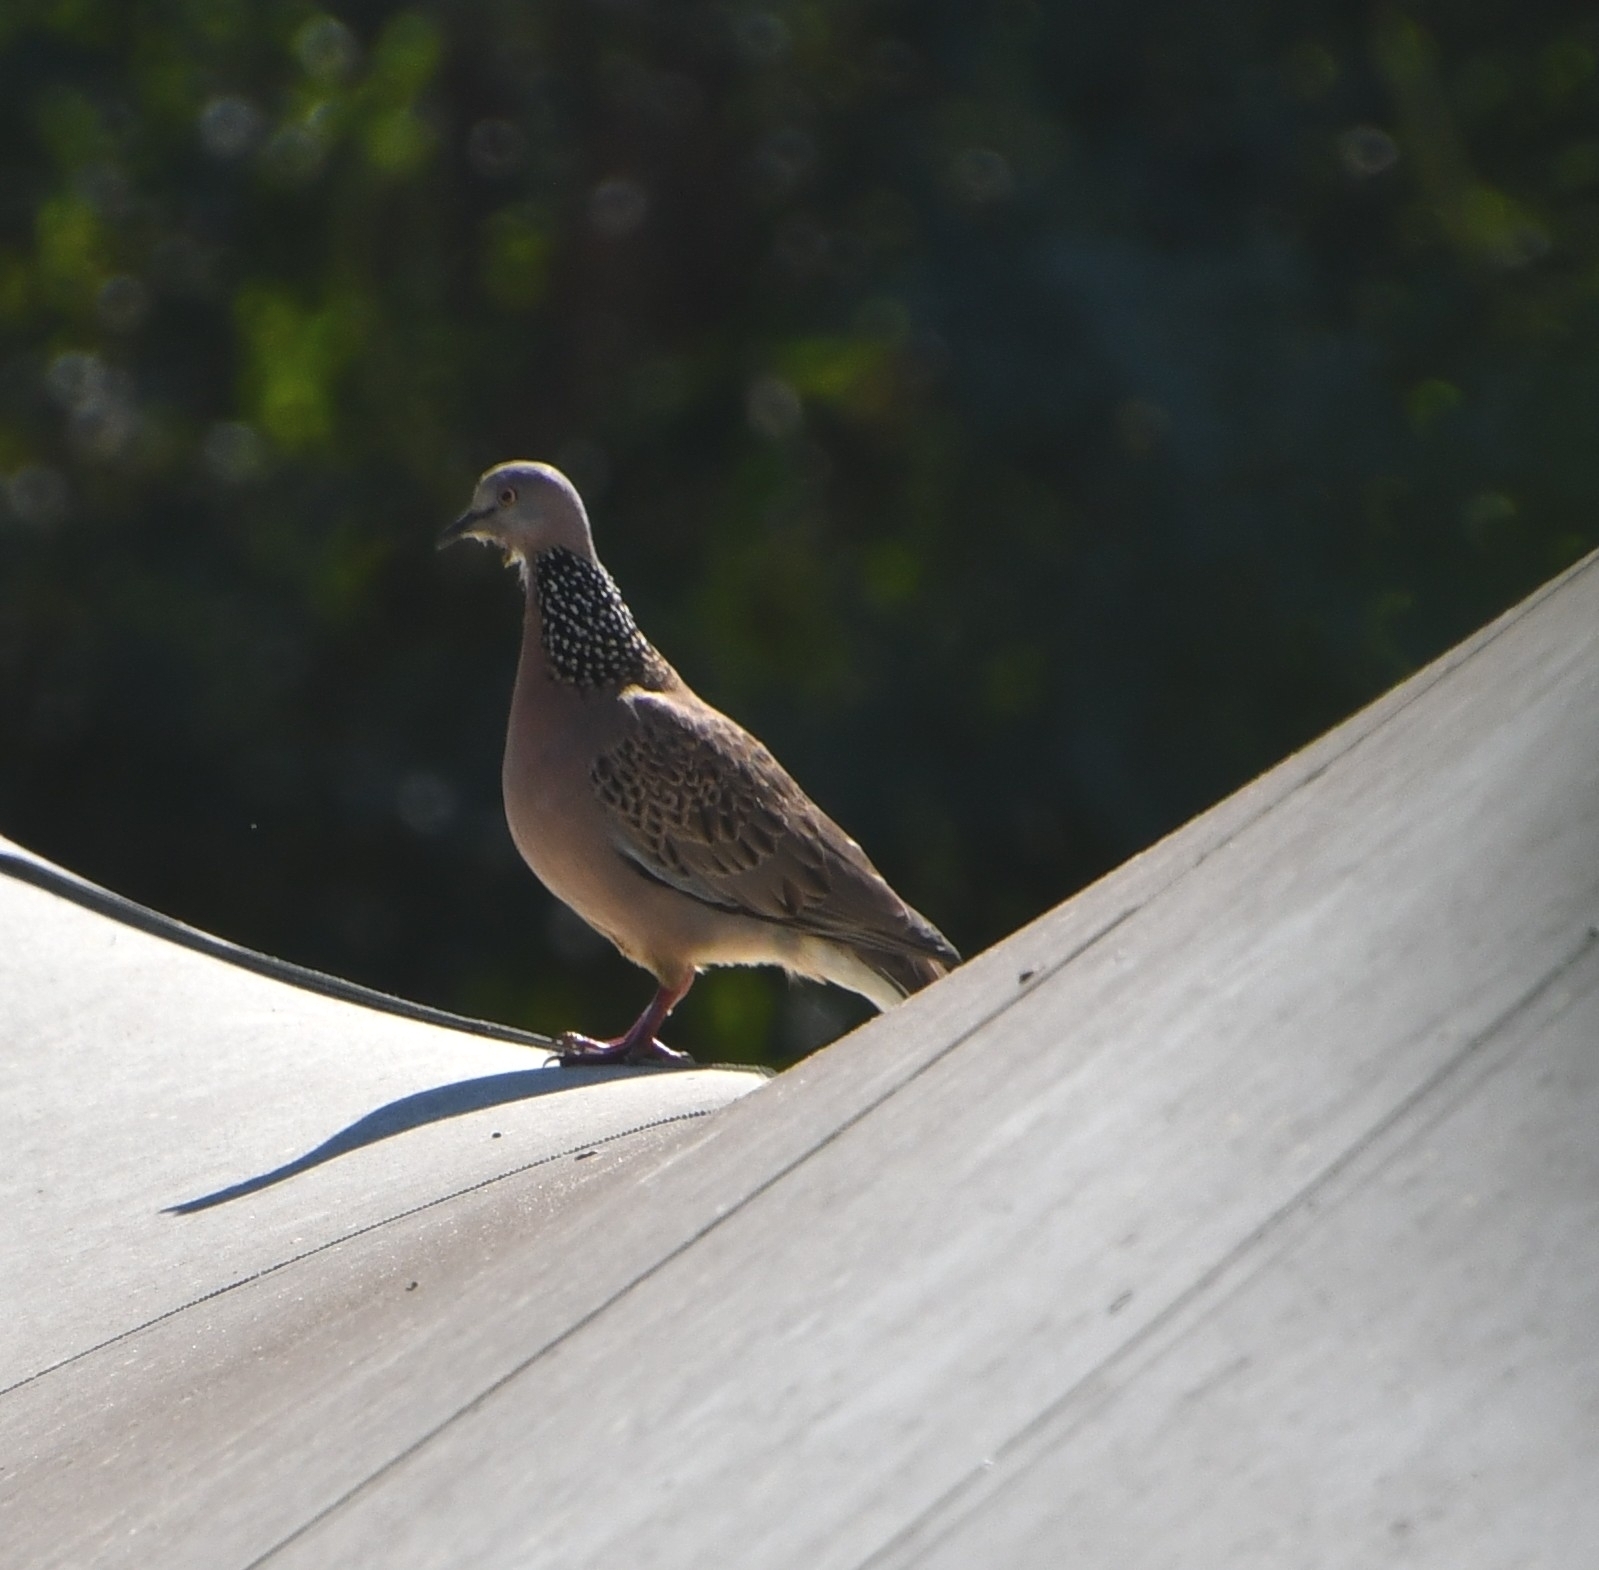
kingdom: Animalia
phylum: Chordata
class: Aves
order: Columbiformes
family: Columbidae
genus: Spilopelia
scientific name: Spilopelia chinensis
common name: Spotted dove
